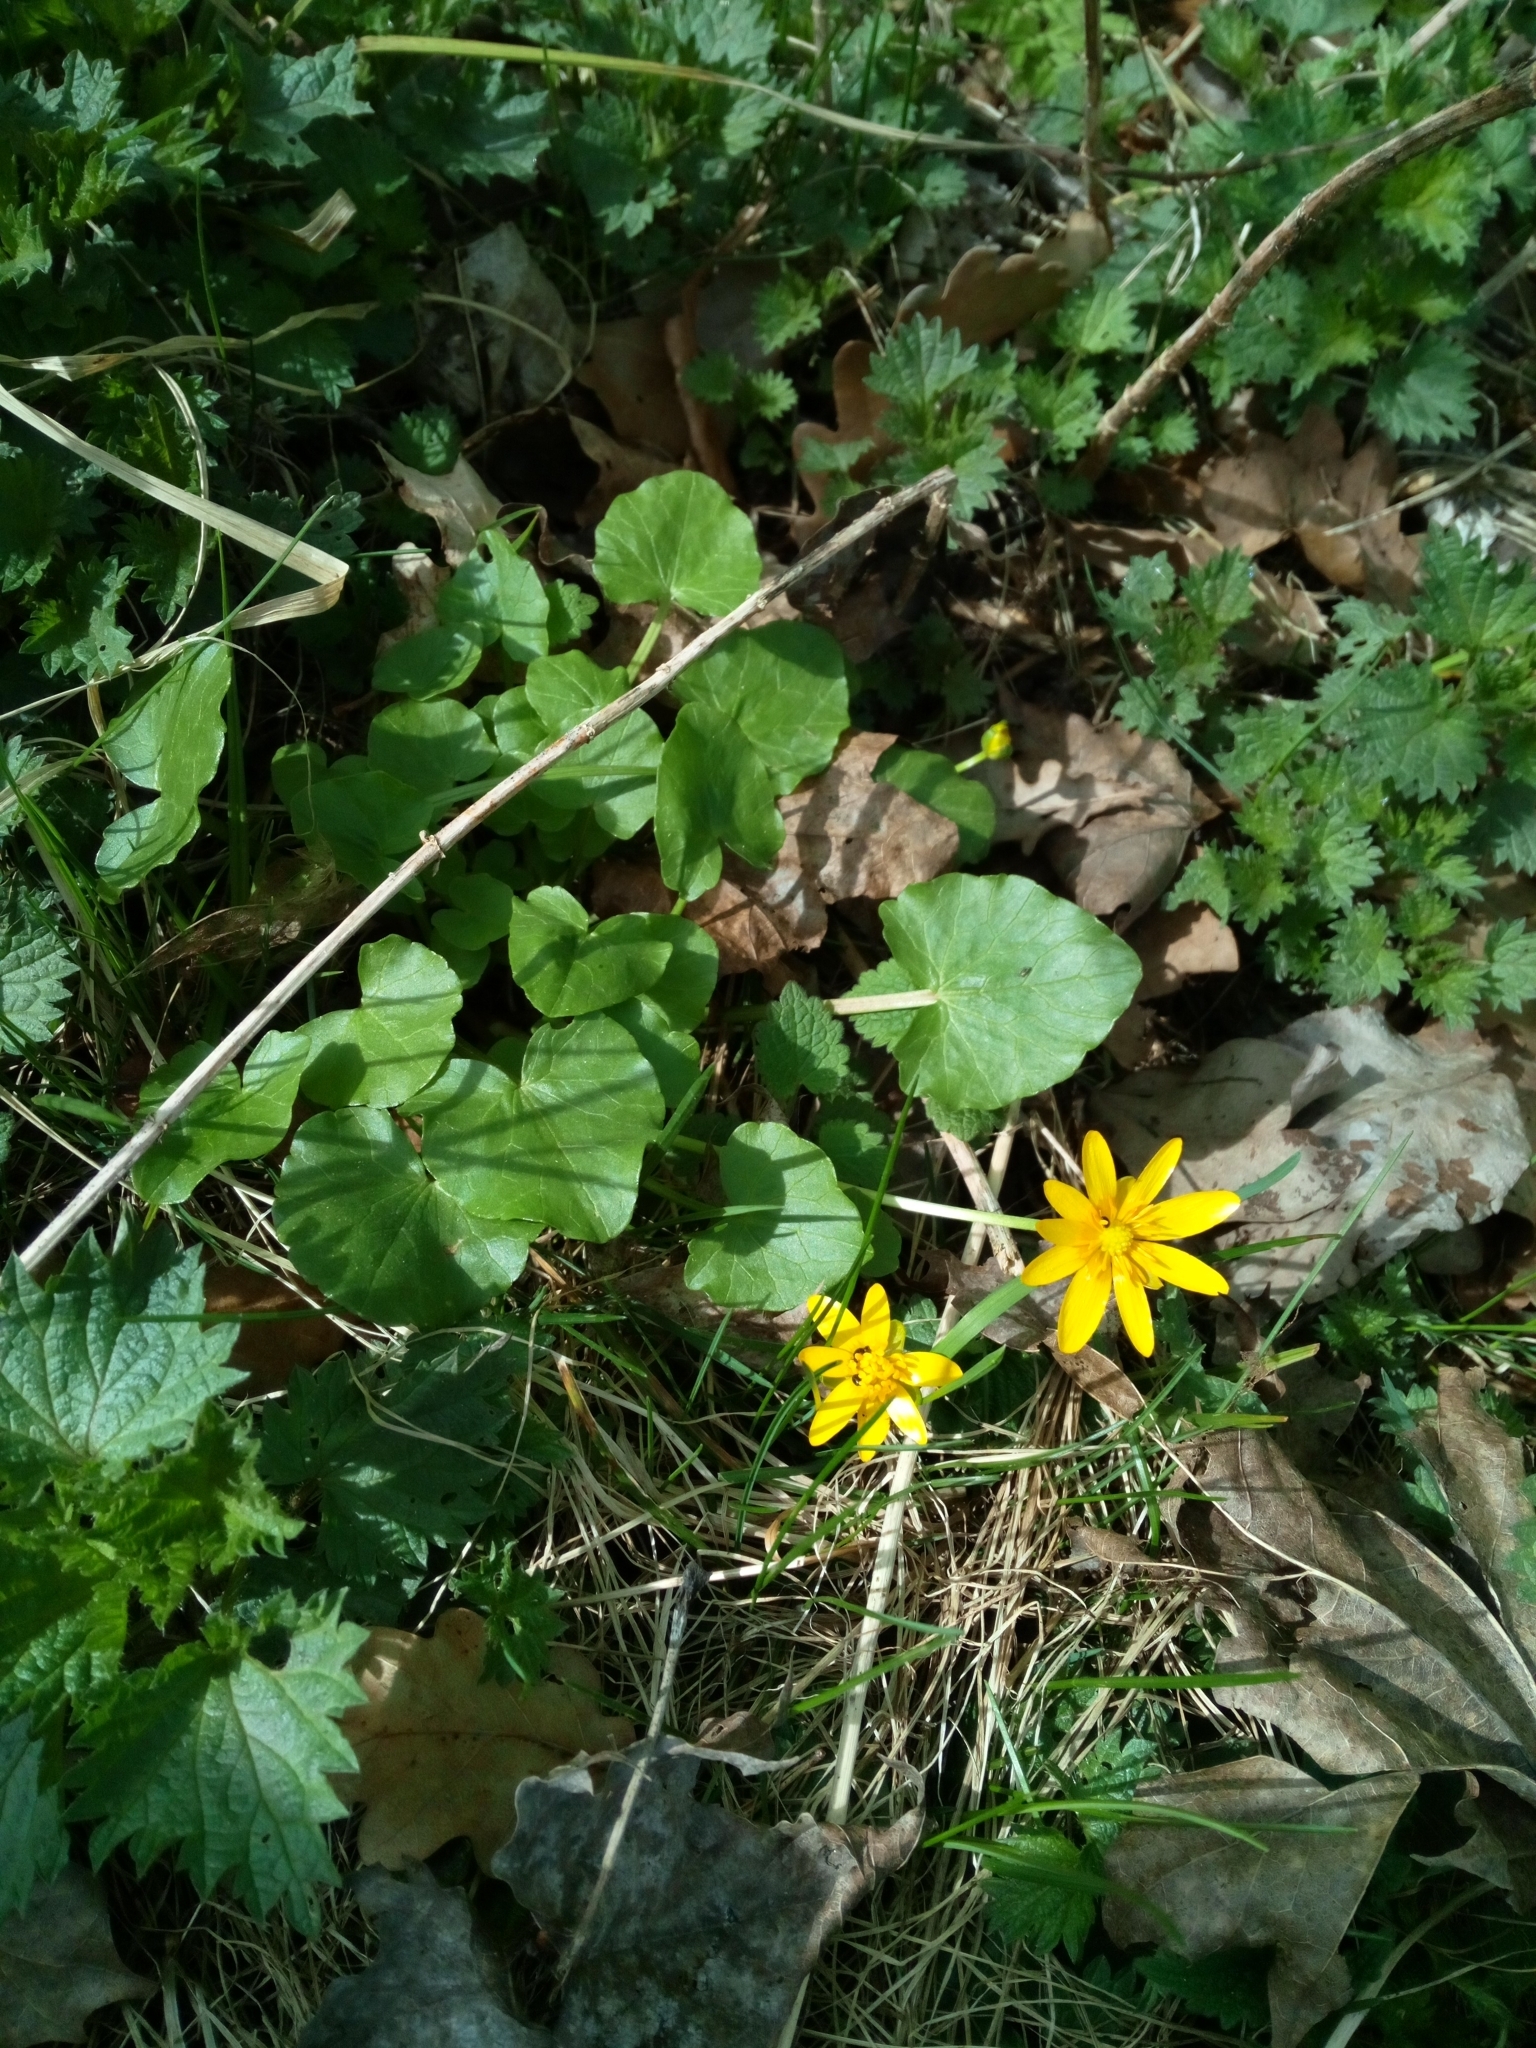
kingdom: Plantae
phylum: Tracheophyta
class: Magnoliopsida
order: Ranunculales
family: Ranunculaceae
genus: Ficaria
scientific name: Ficaria verna
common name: Lesser celandine
